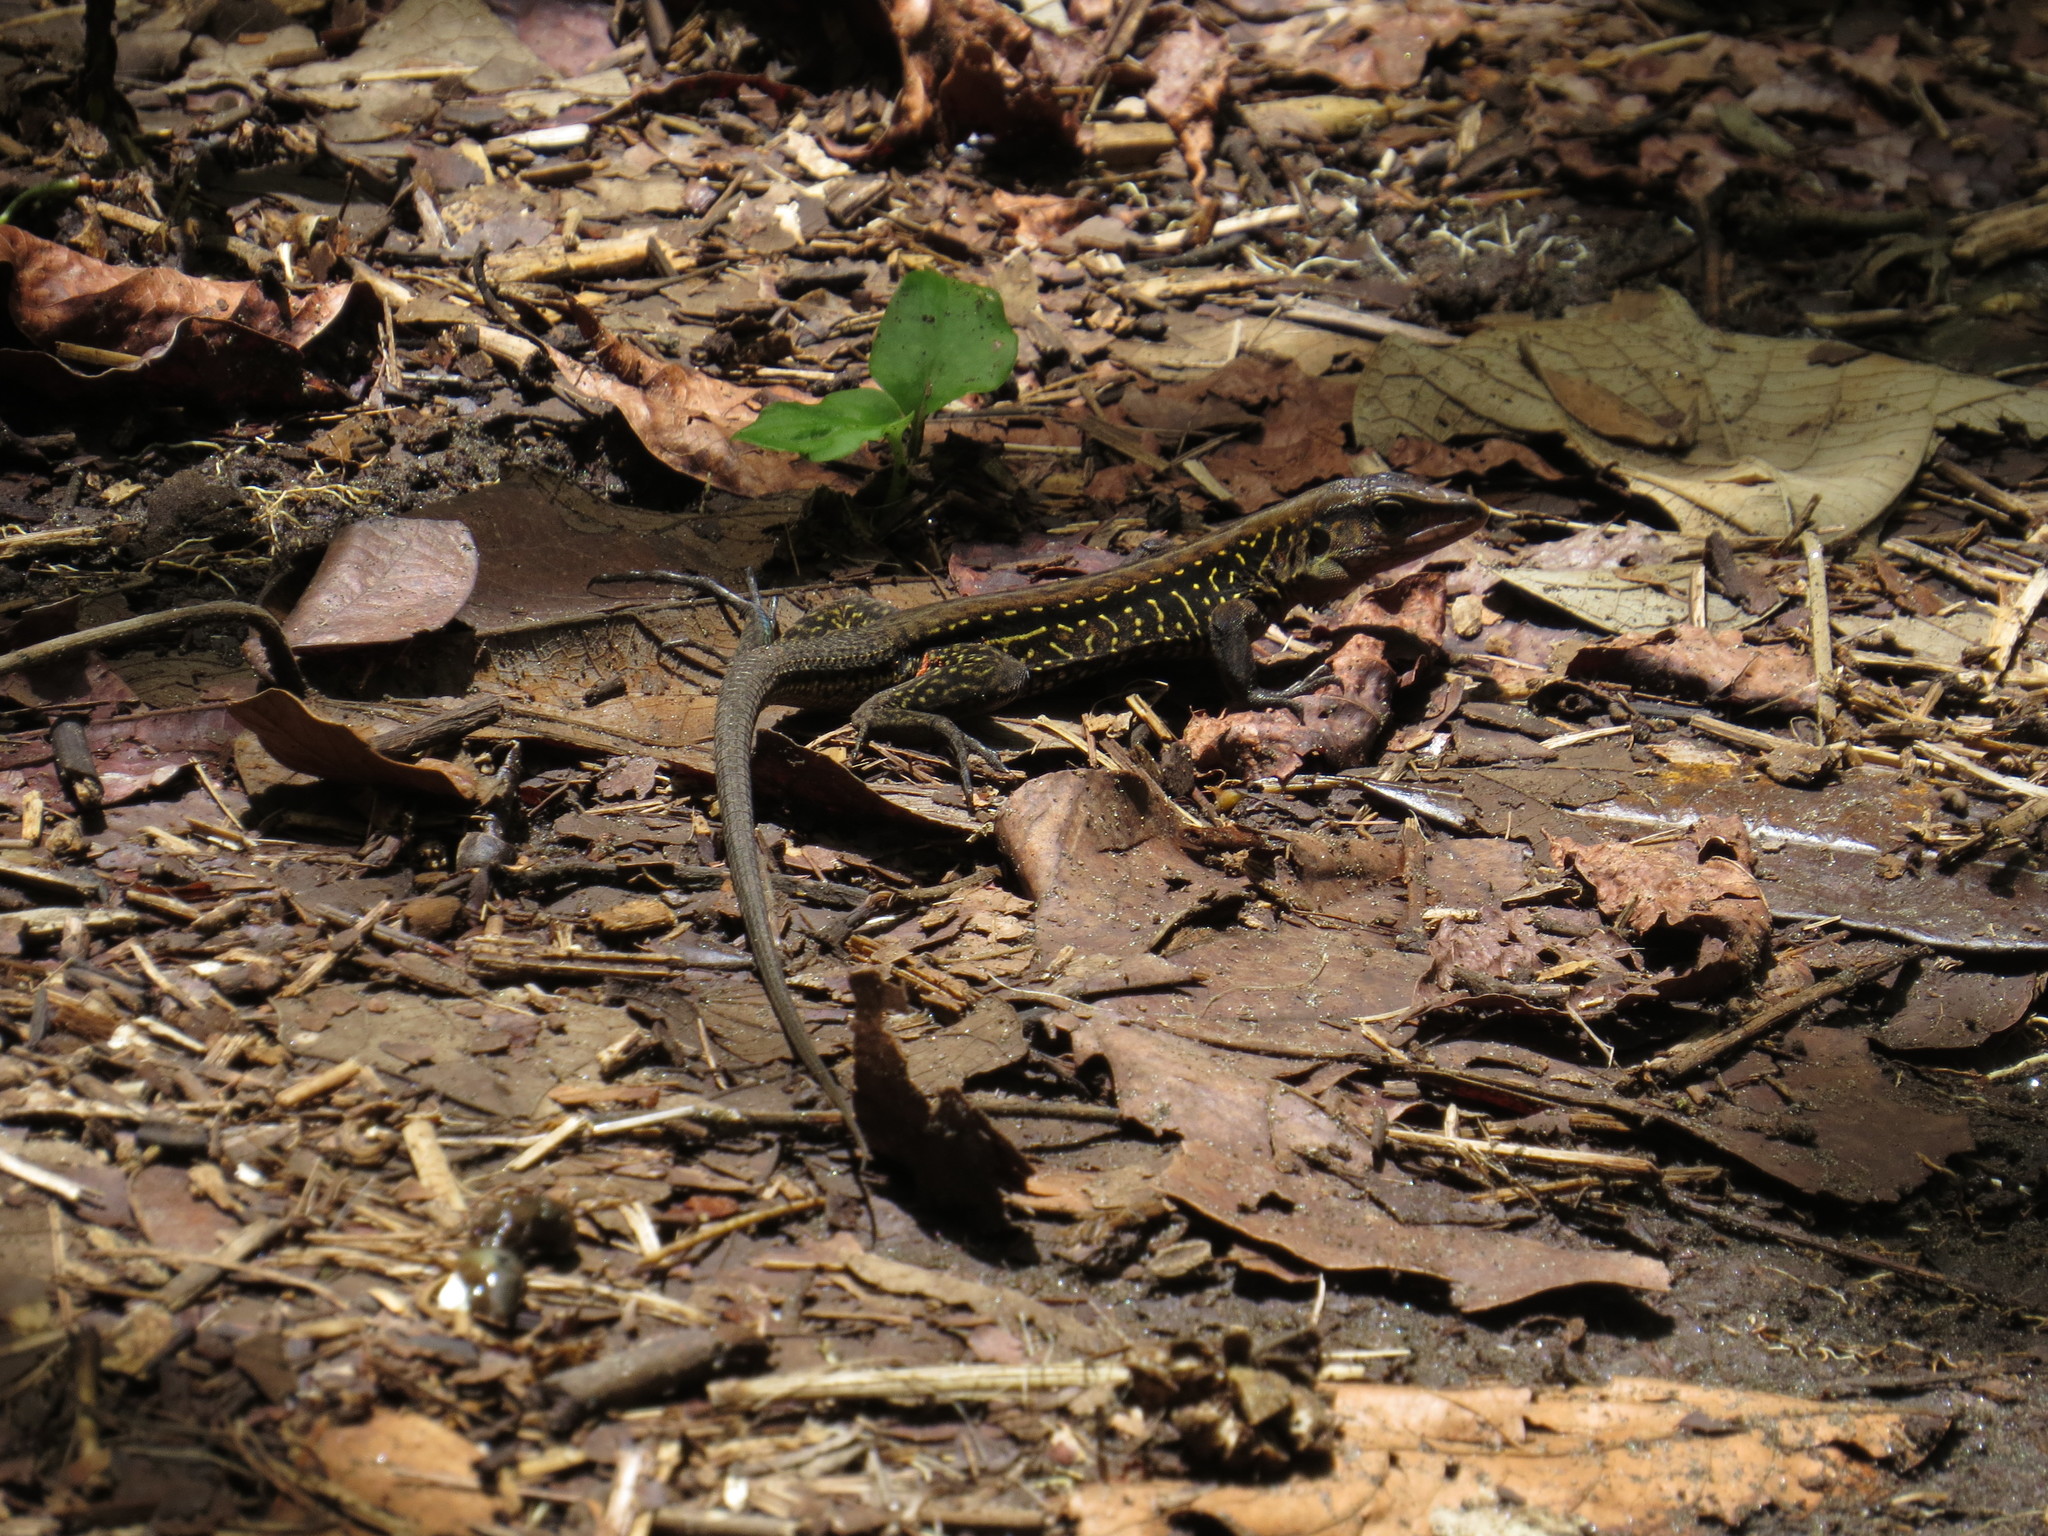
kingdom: Animalia
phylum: Chordata
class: Squamata
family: Teiidae
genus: Holcosus
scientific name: Holcosus festivus
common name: Middle american ameiva
